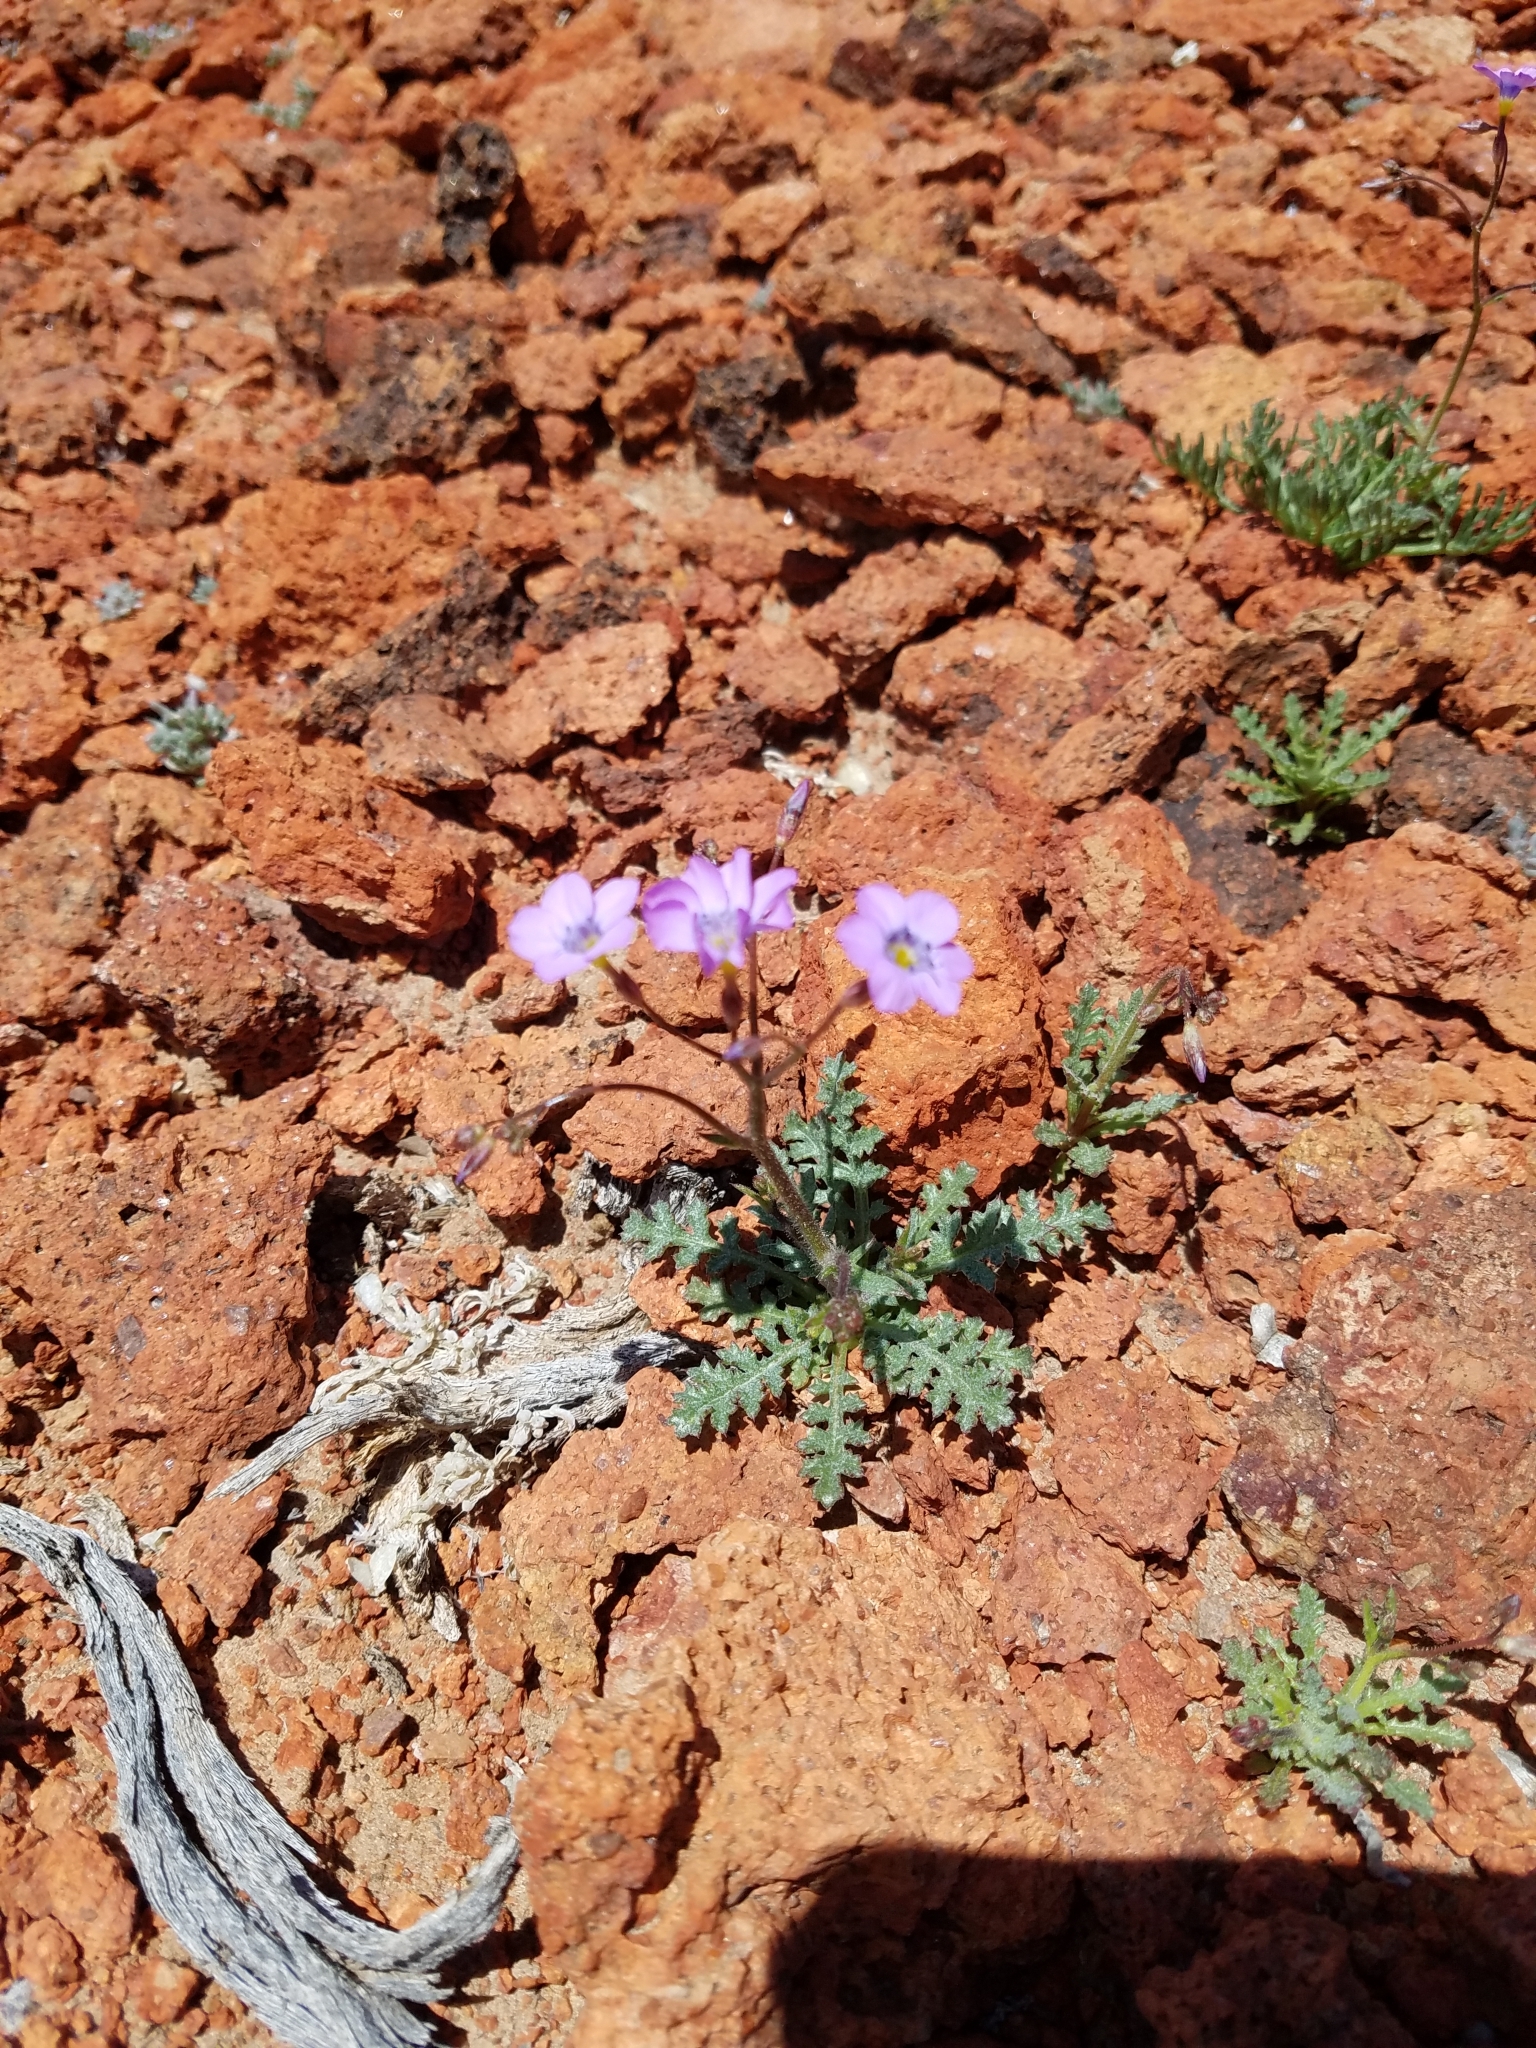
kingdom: Plantae
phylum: Tracheophyta
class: Magnoliopsida
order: Ericales
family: Polemoniaceae
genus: Gilia
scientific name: Gilia cana
